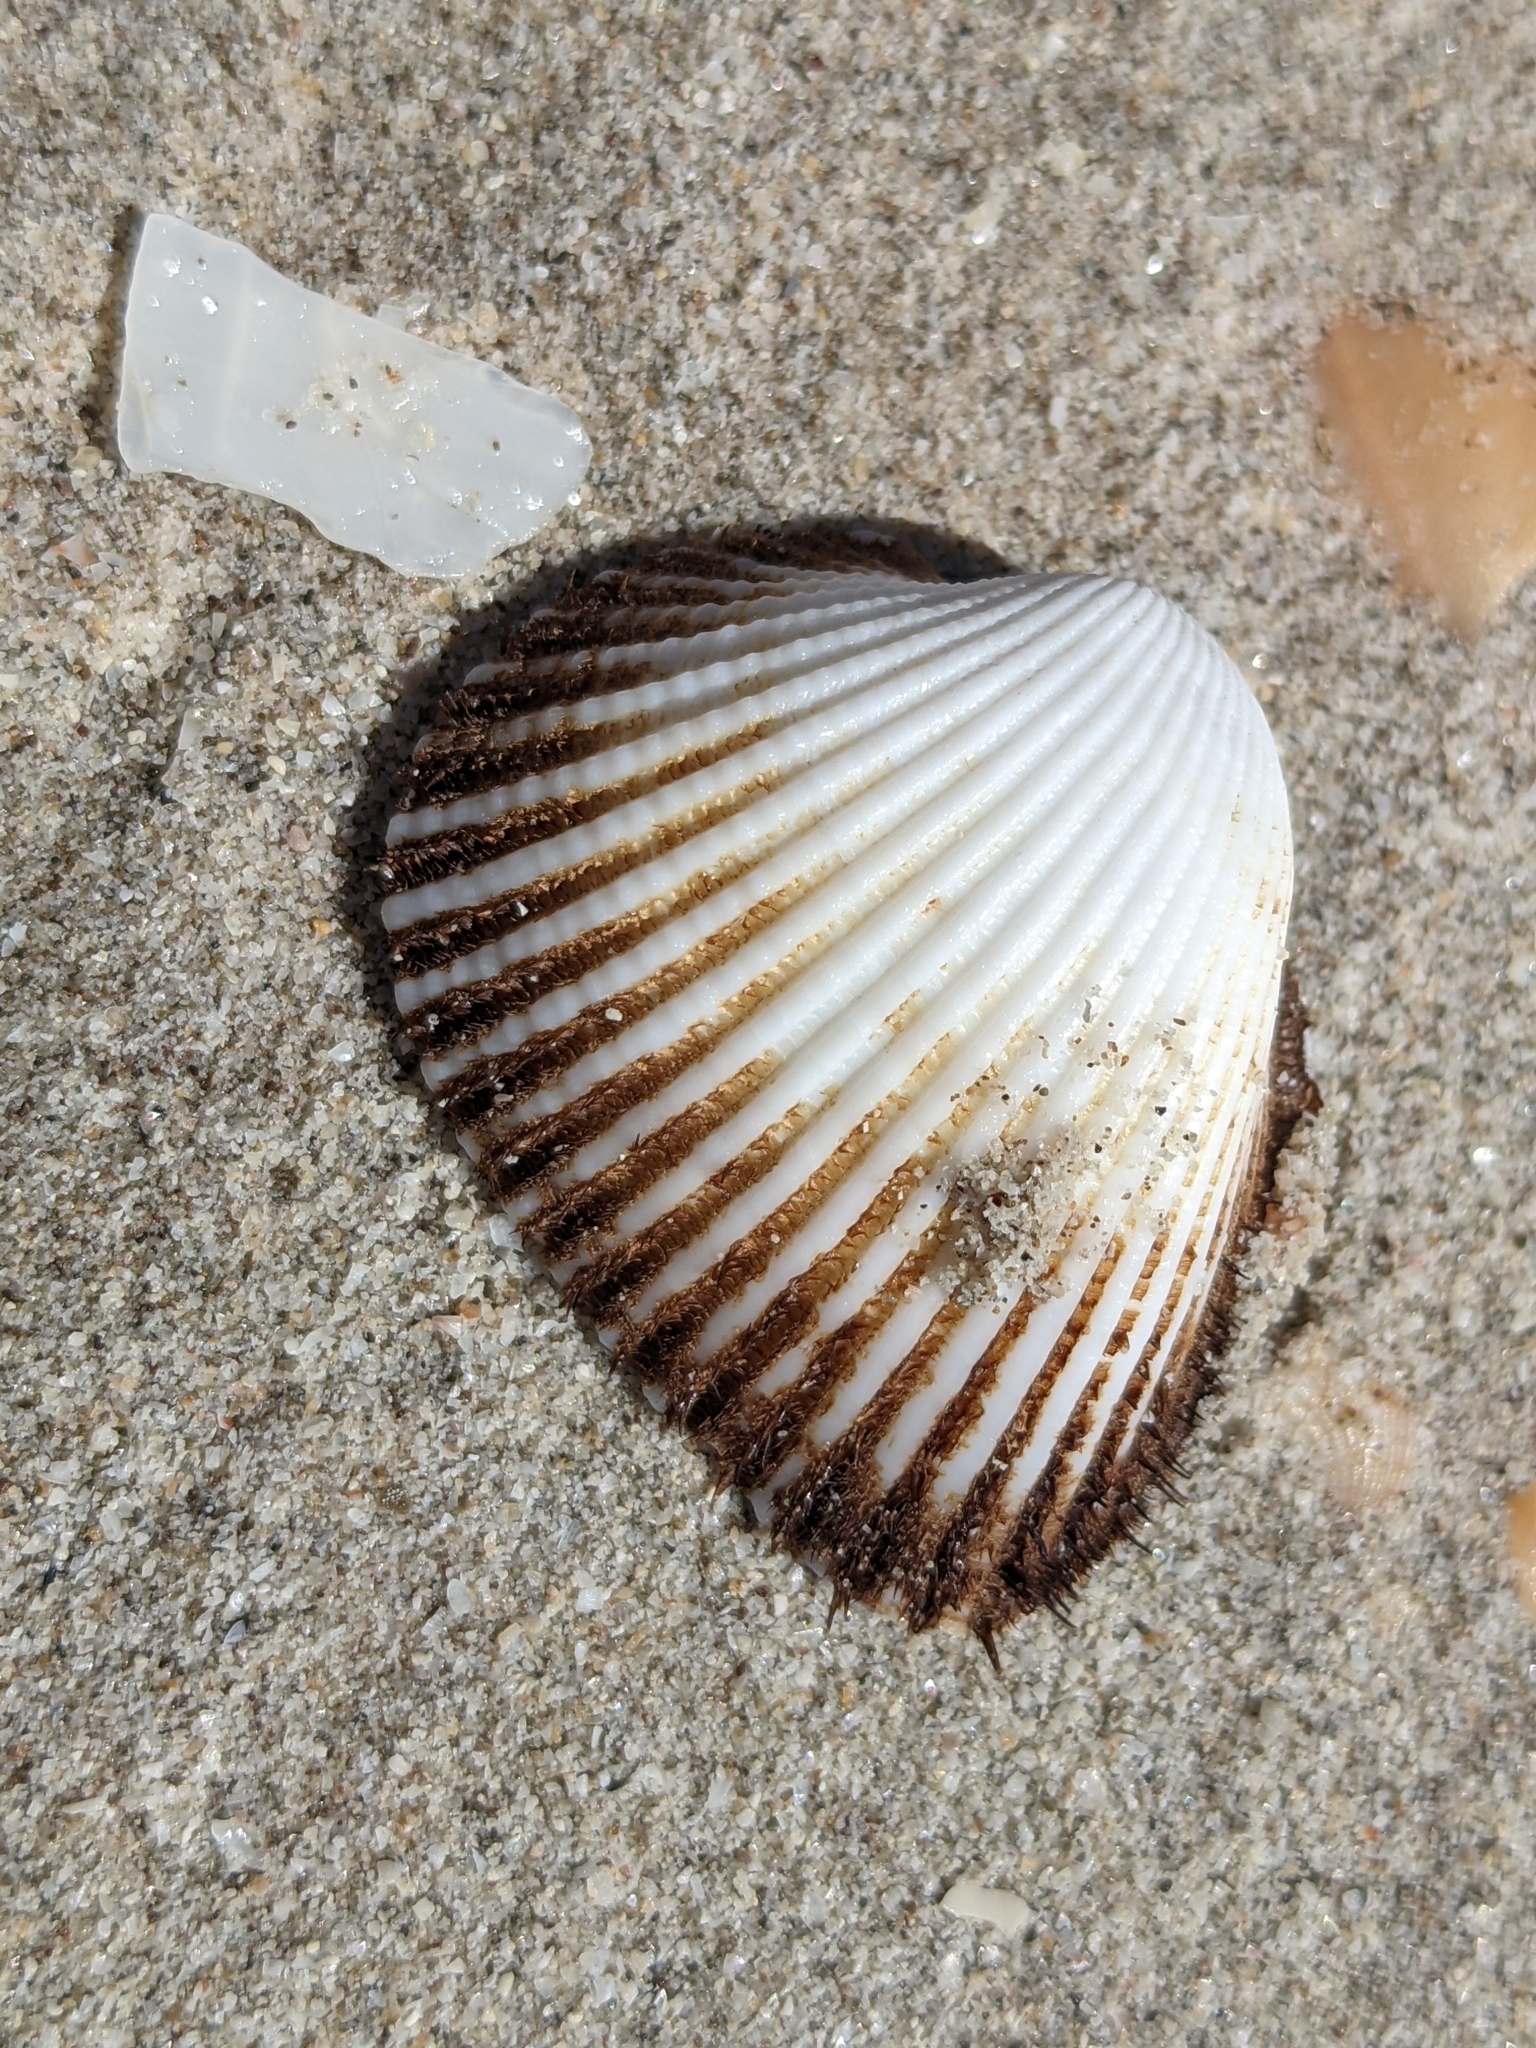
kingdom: Animalia
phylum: Mollusca
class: Bivalvia
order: Arcida
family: Arcidae
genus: Larkinia
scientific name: Larkinia multicostata
